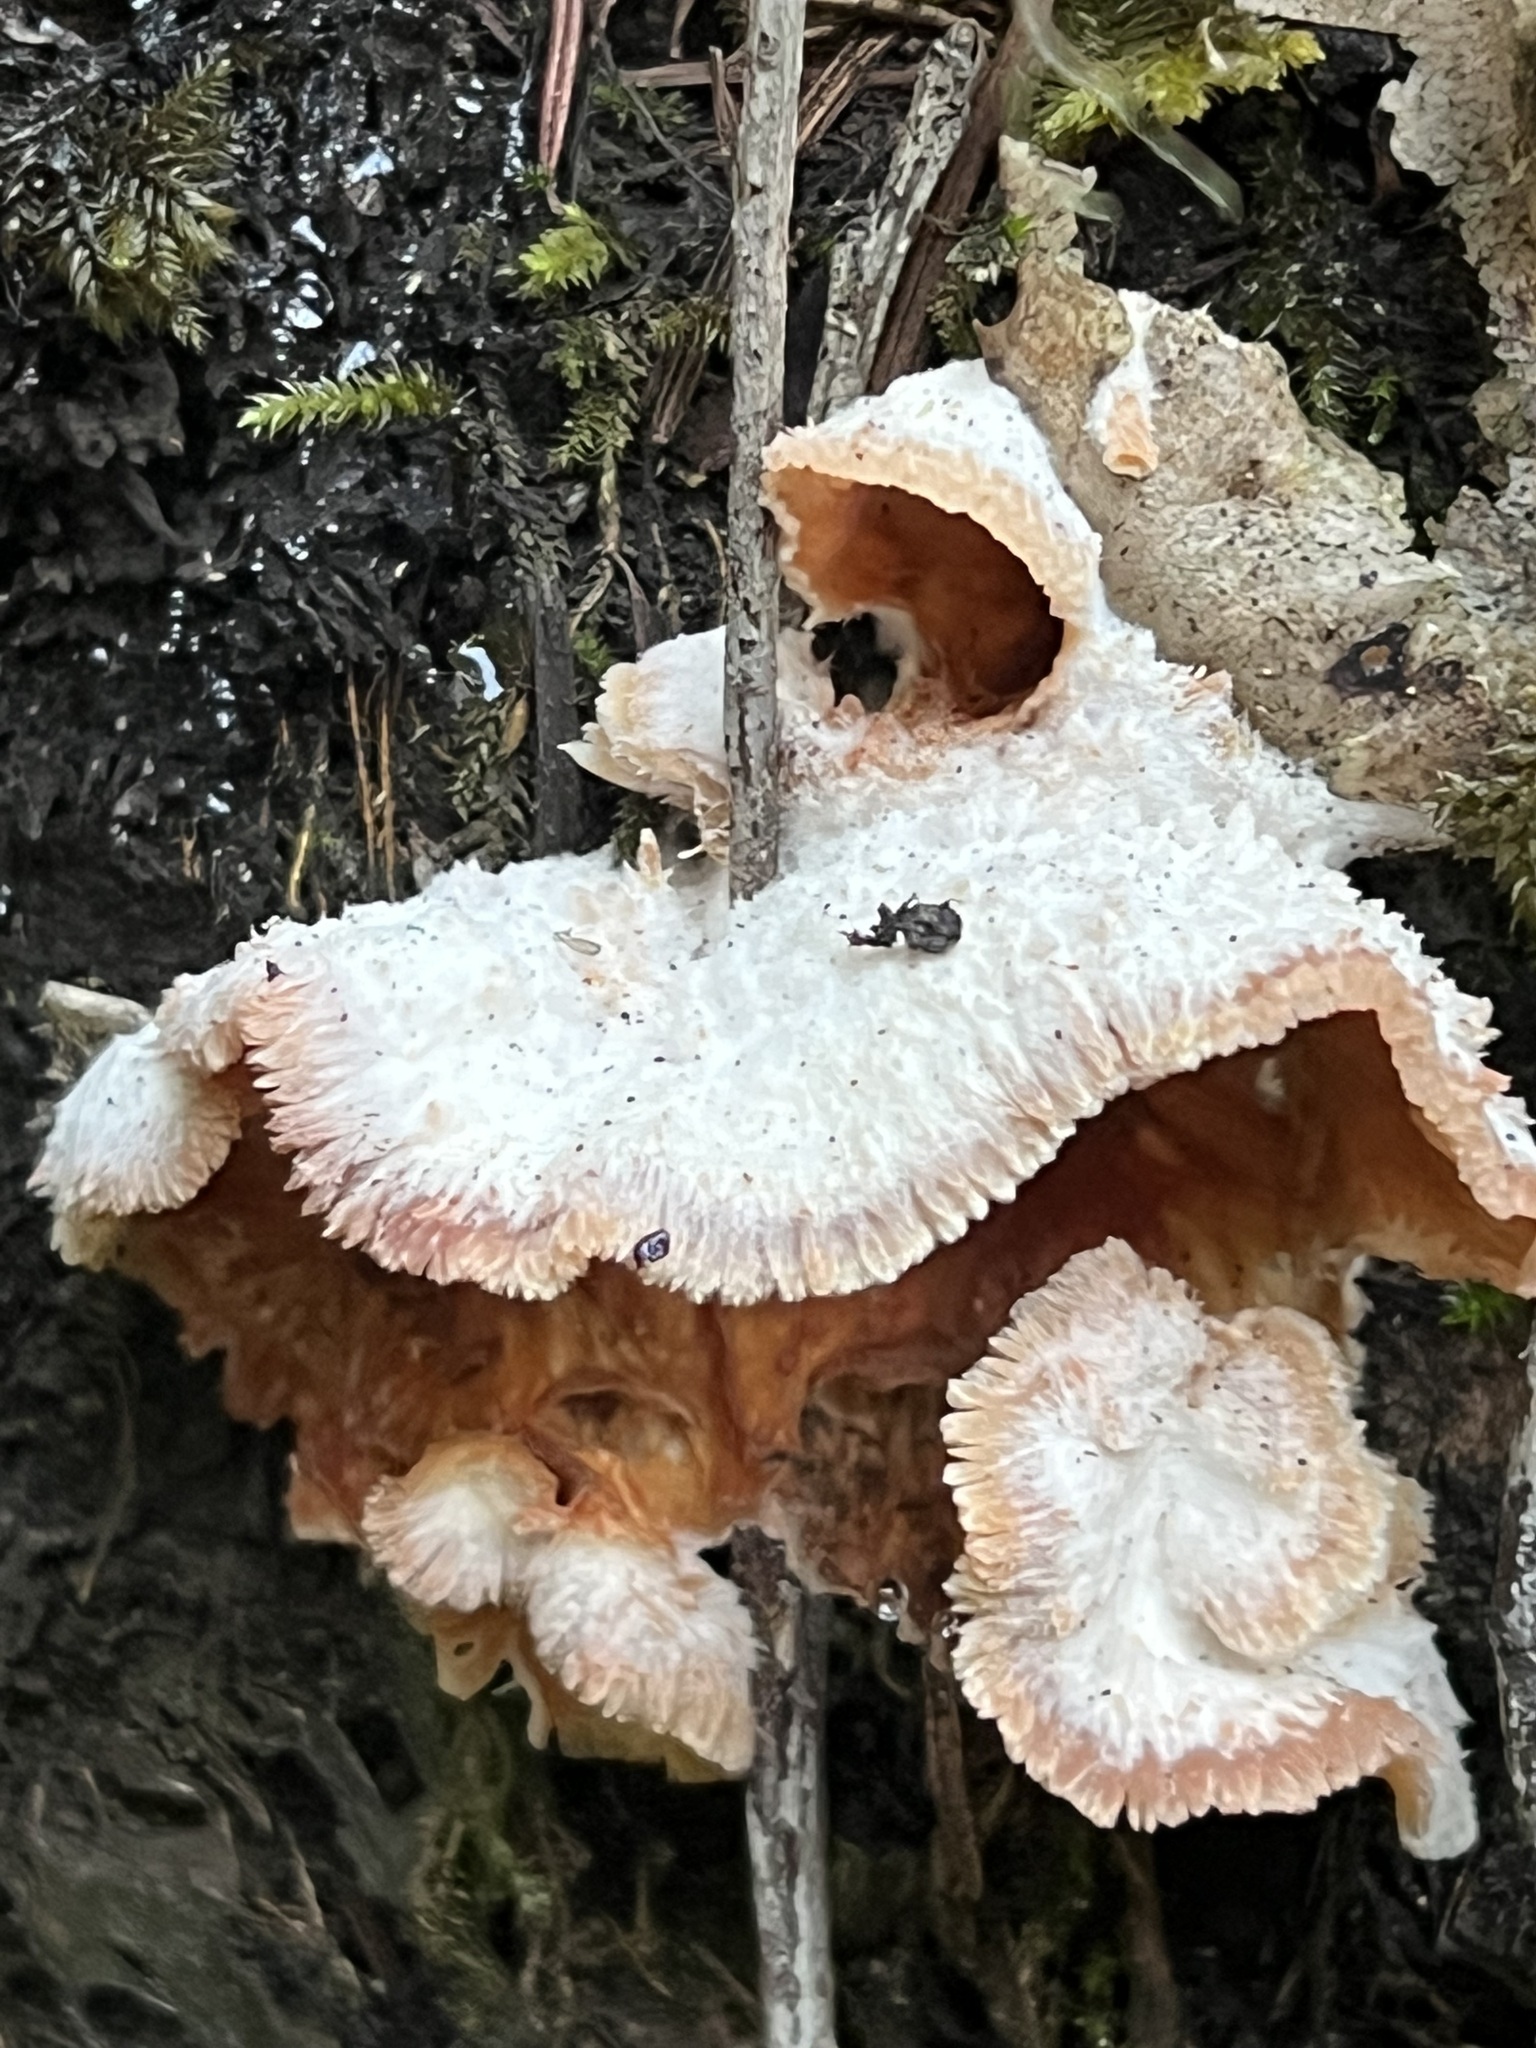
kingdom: Fungi
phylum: Basidiomycota
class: Agaricomycetes
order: Polyporales
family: Meruliaceae
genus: Phlebia
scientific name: Phlebia tremellosa
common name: Jelly rot
